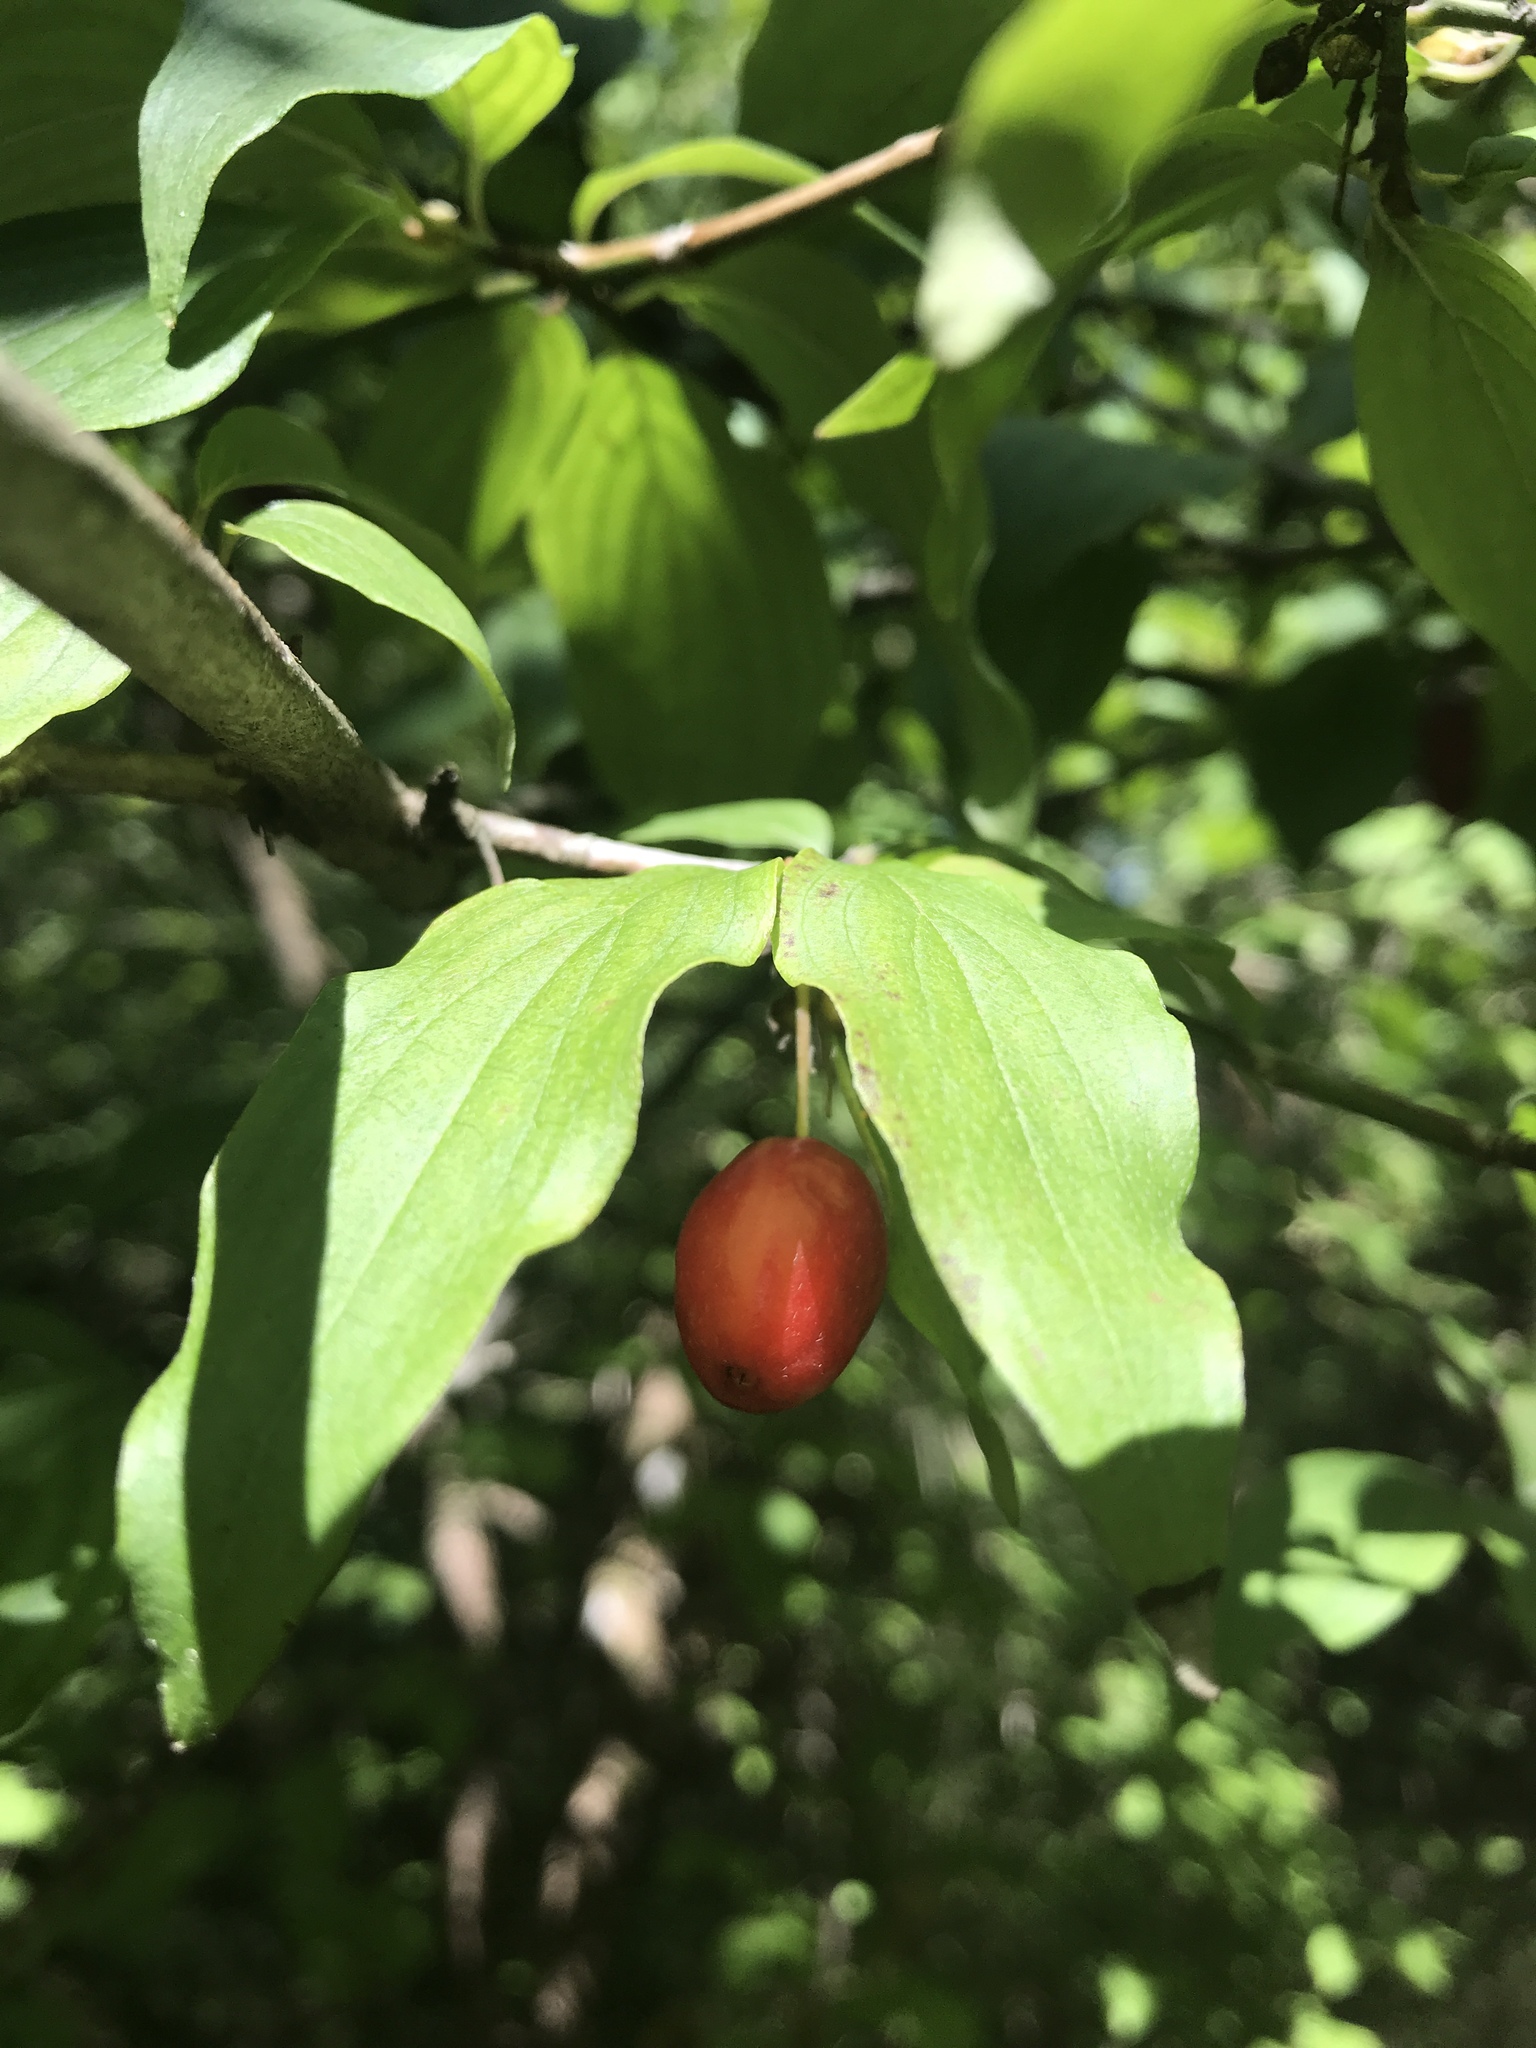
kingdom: Plantae
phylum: Tracheophyta
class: Magnoliopsida
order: Cornales
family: Cornaceae
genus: Cornus
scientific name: Cornus mas
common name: Cornelian-cherry
